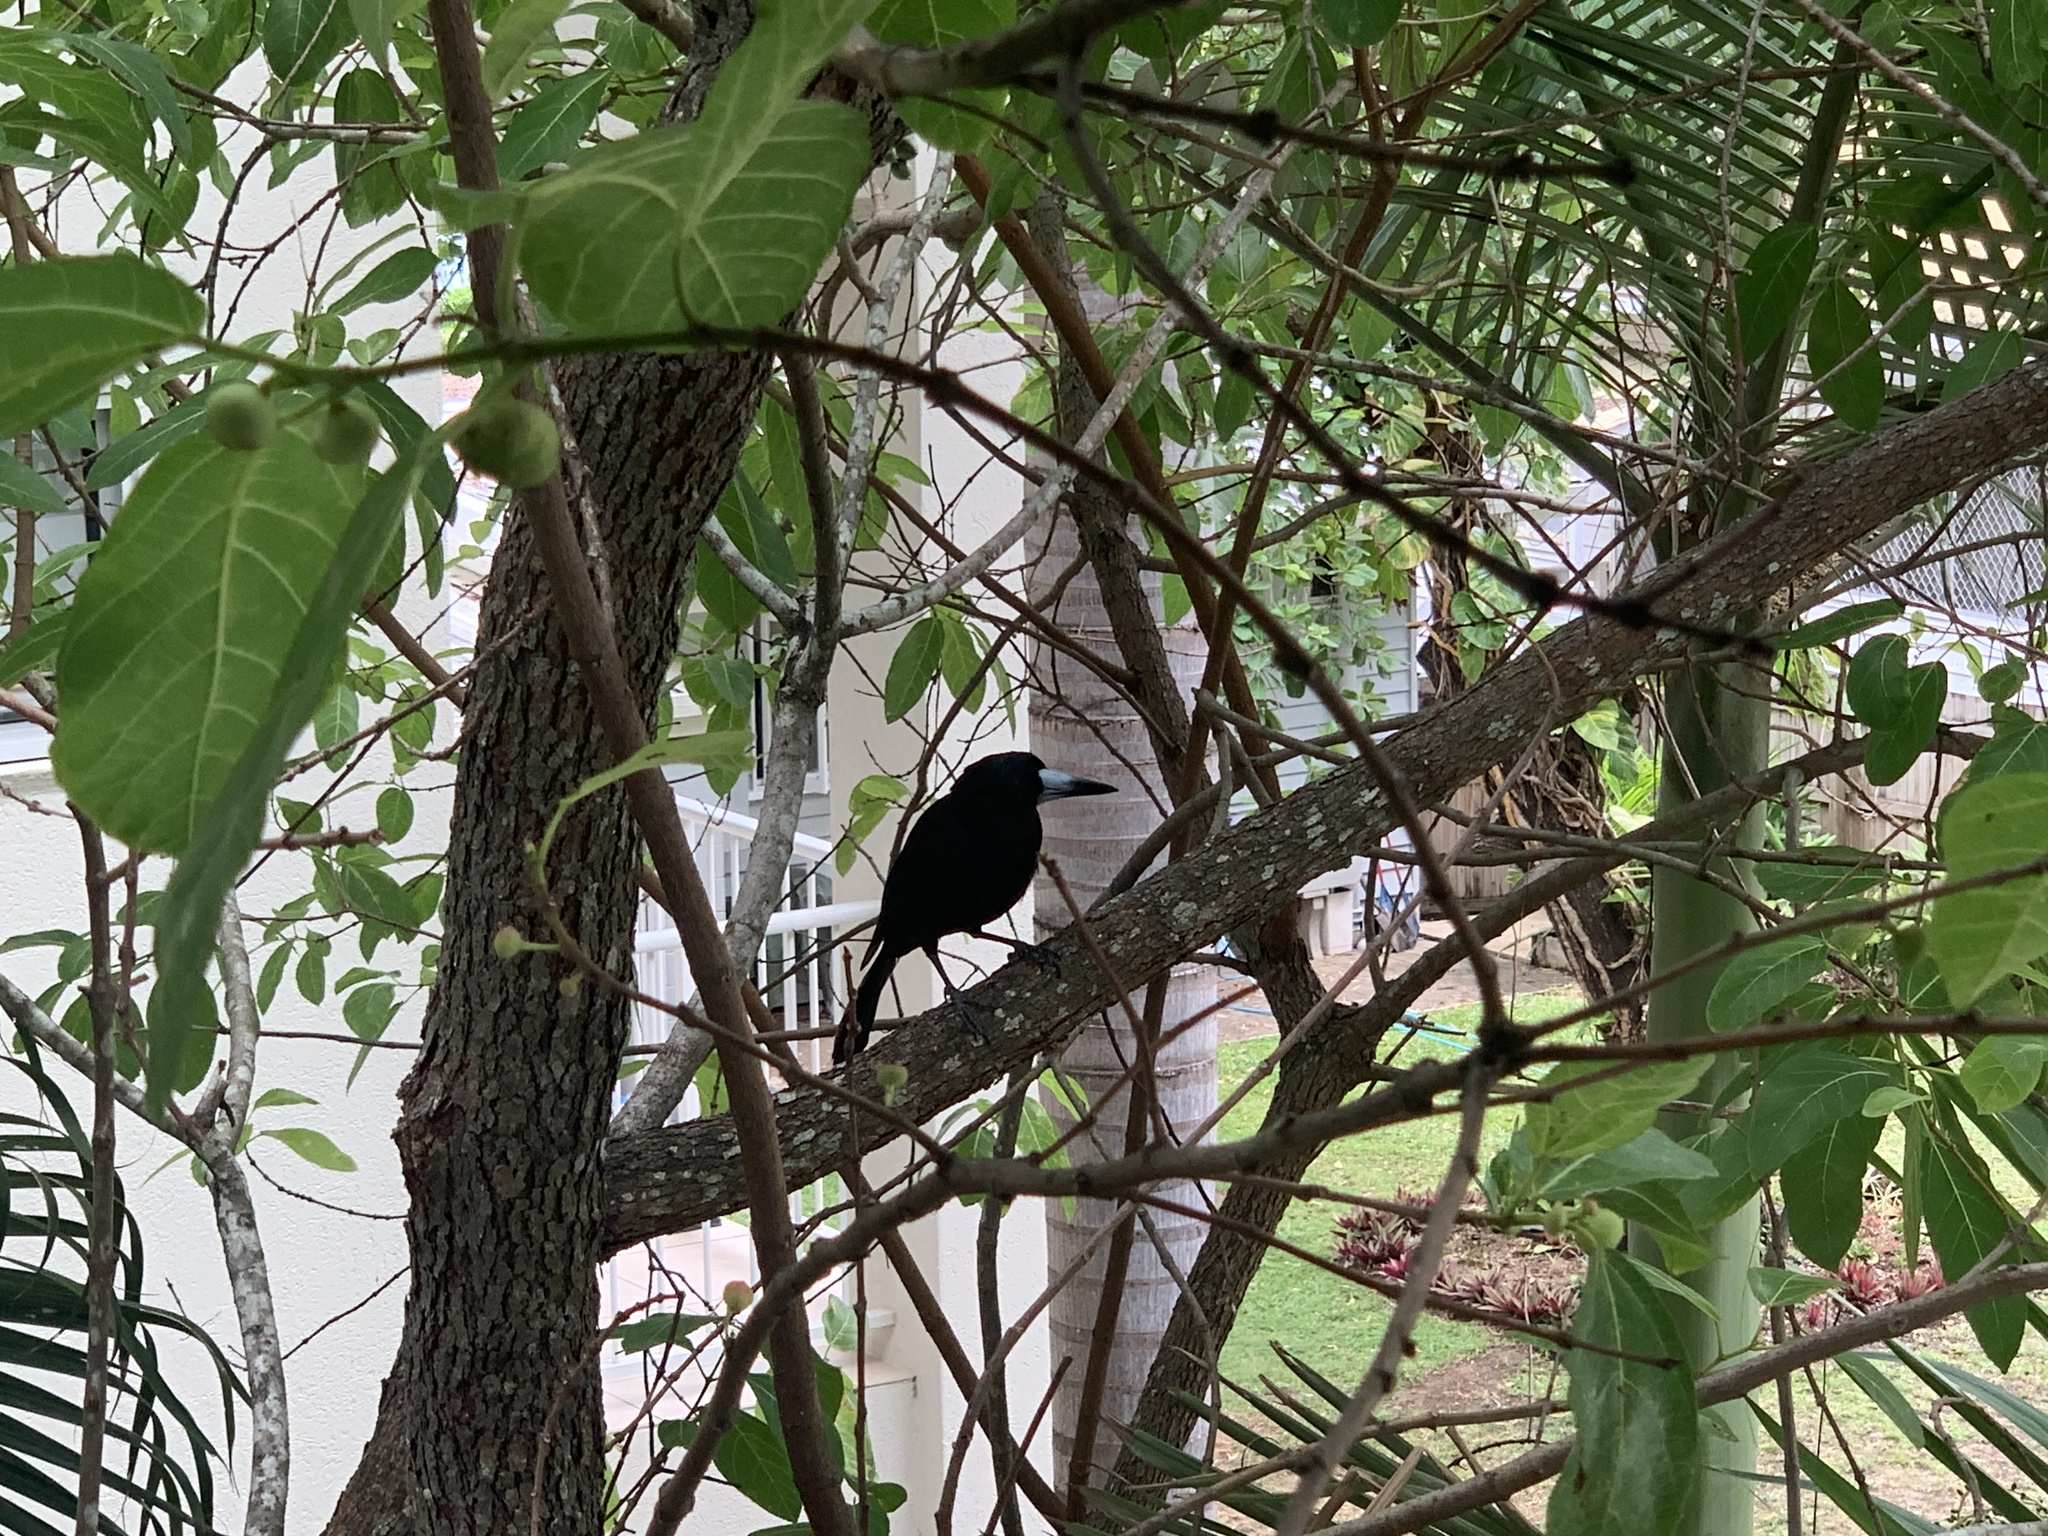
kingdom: Animalia
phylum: Chordata
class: Aves
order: Passeriformes
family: Artamidae
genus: Melloria
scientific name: Melloria quoyi
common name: Black butcherbird
